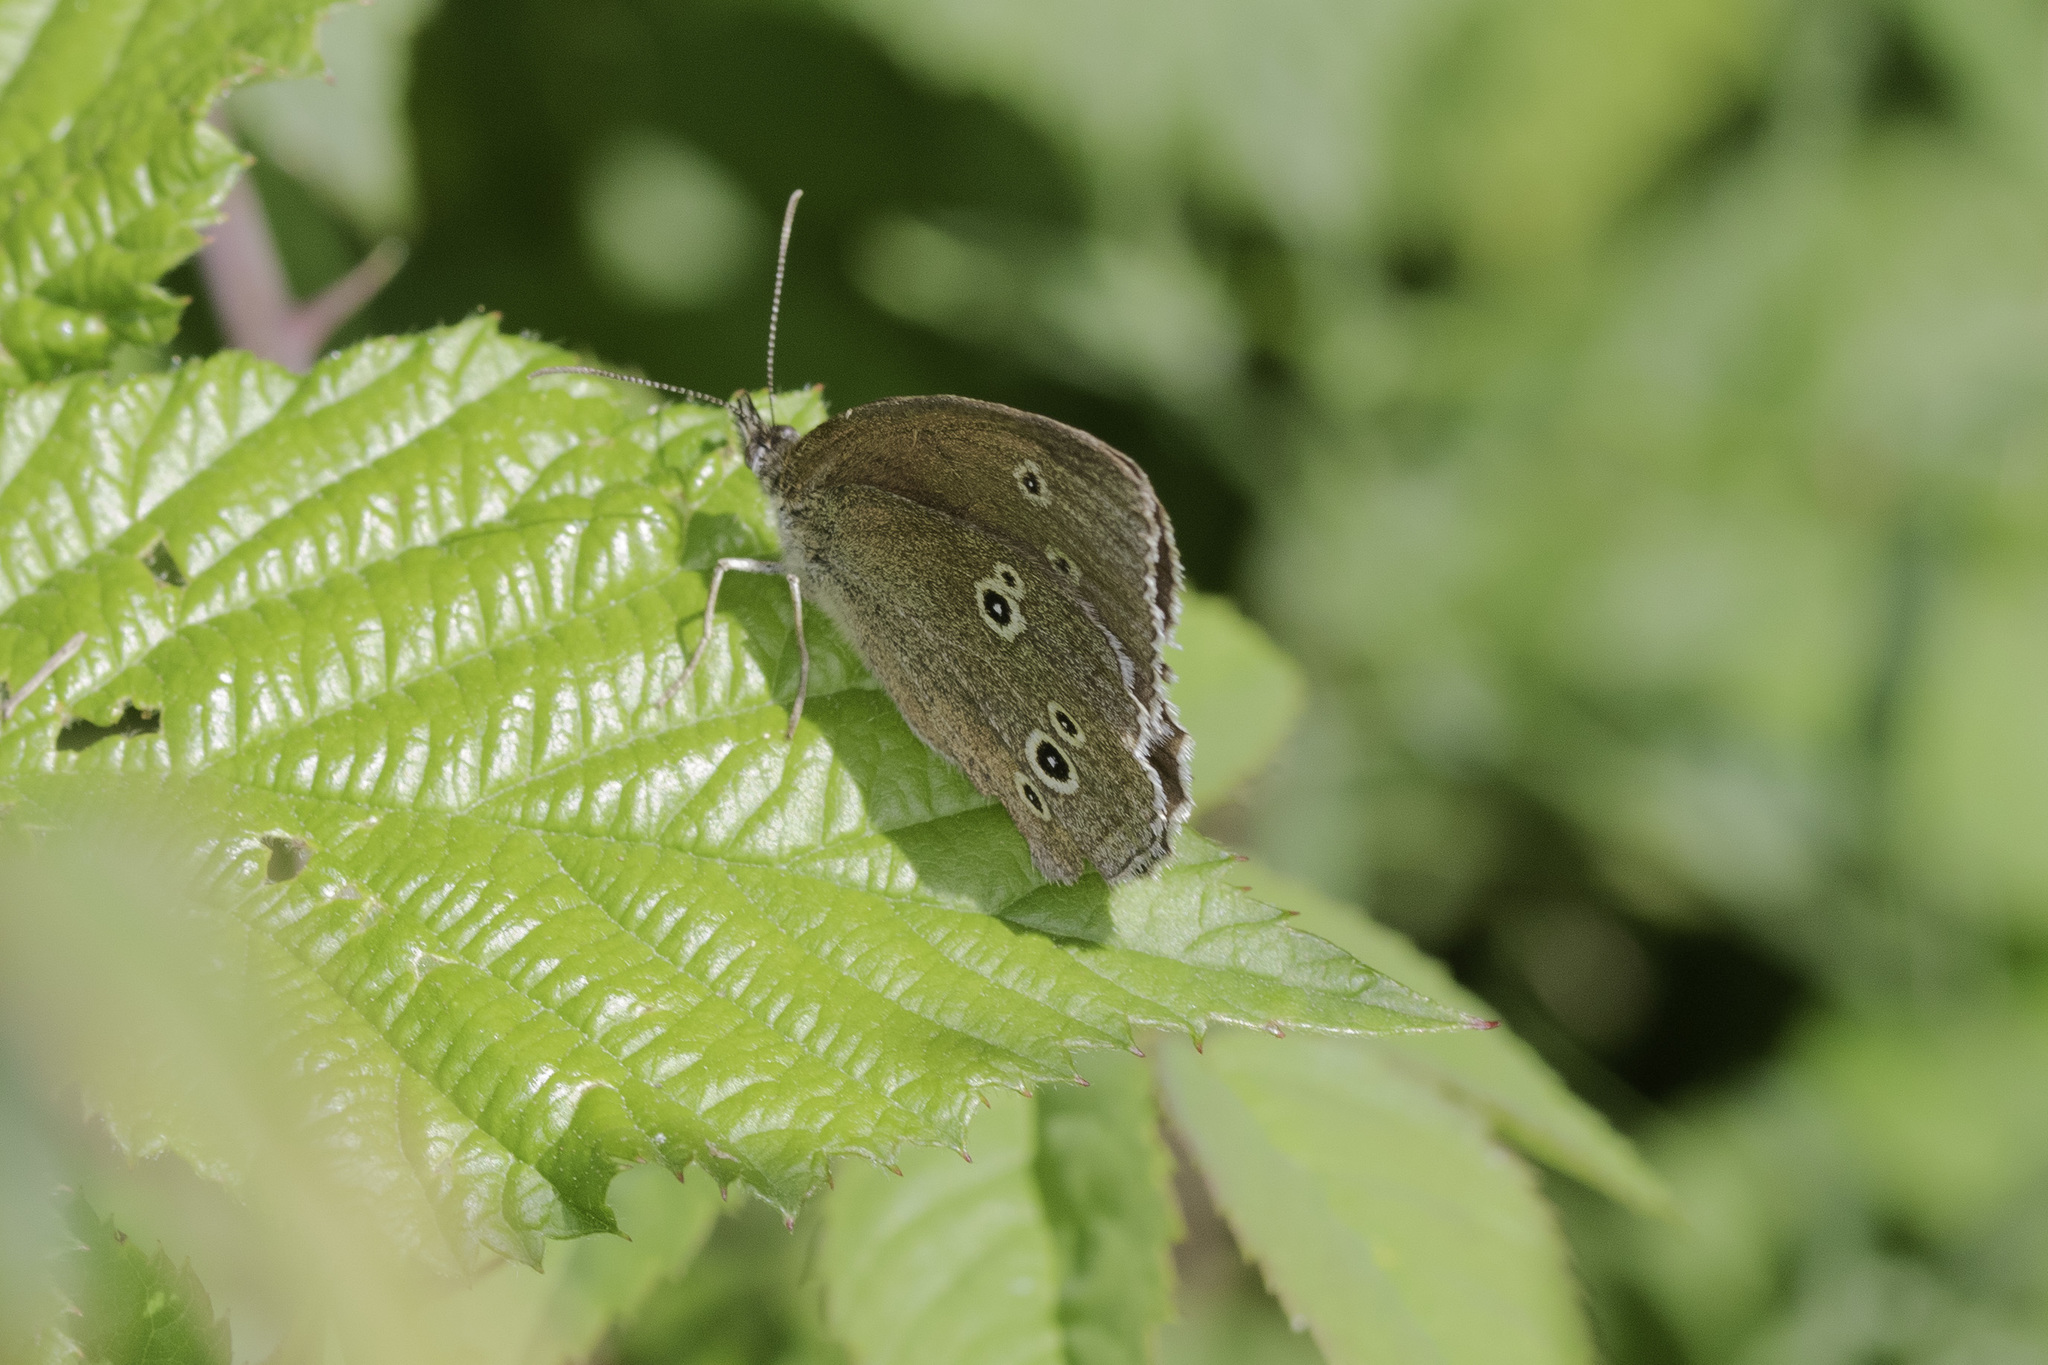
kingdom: Animalia
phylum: Arthropoda
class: Insecta
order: Lepidoptera
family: Nymphalidae
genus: Aphantopus
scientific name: Aphantopus hyperantus
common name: Ringlet
